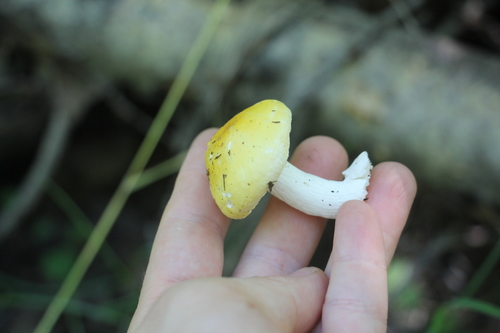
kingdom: Fungi
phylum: Basidiomycota
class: Agaricomycetes
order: Russulales
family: Russulaceae
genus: Russula
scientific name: Russula claroflava
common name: The yellow swamp brittlegill
